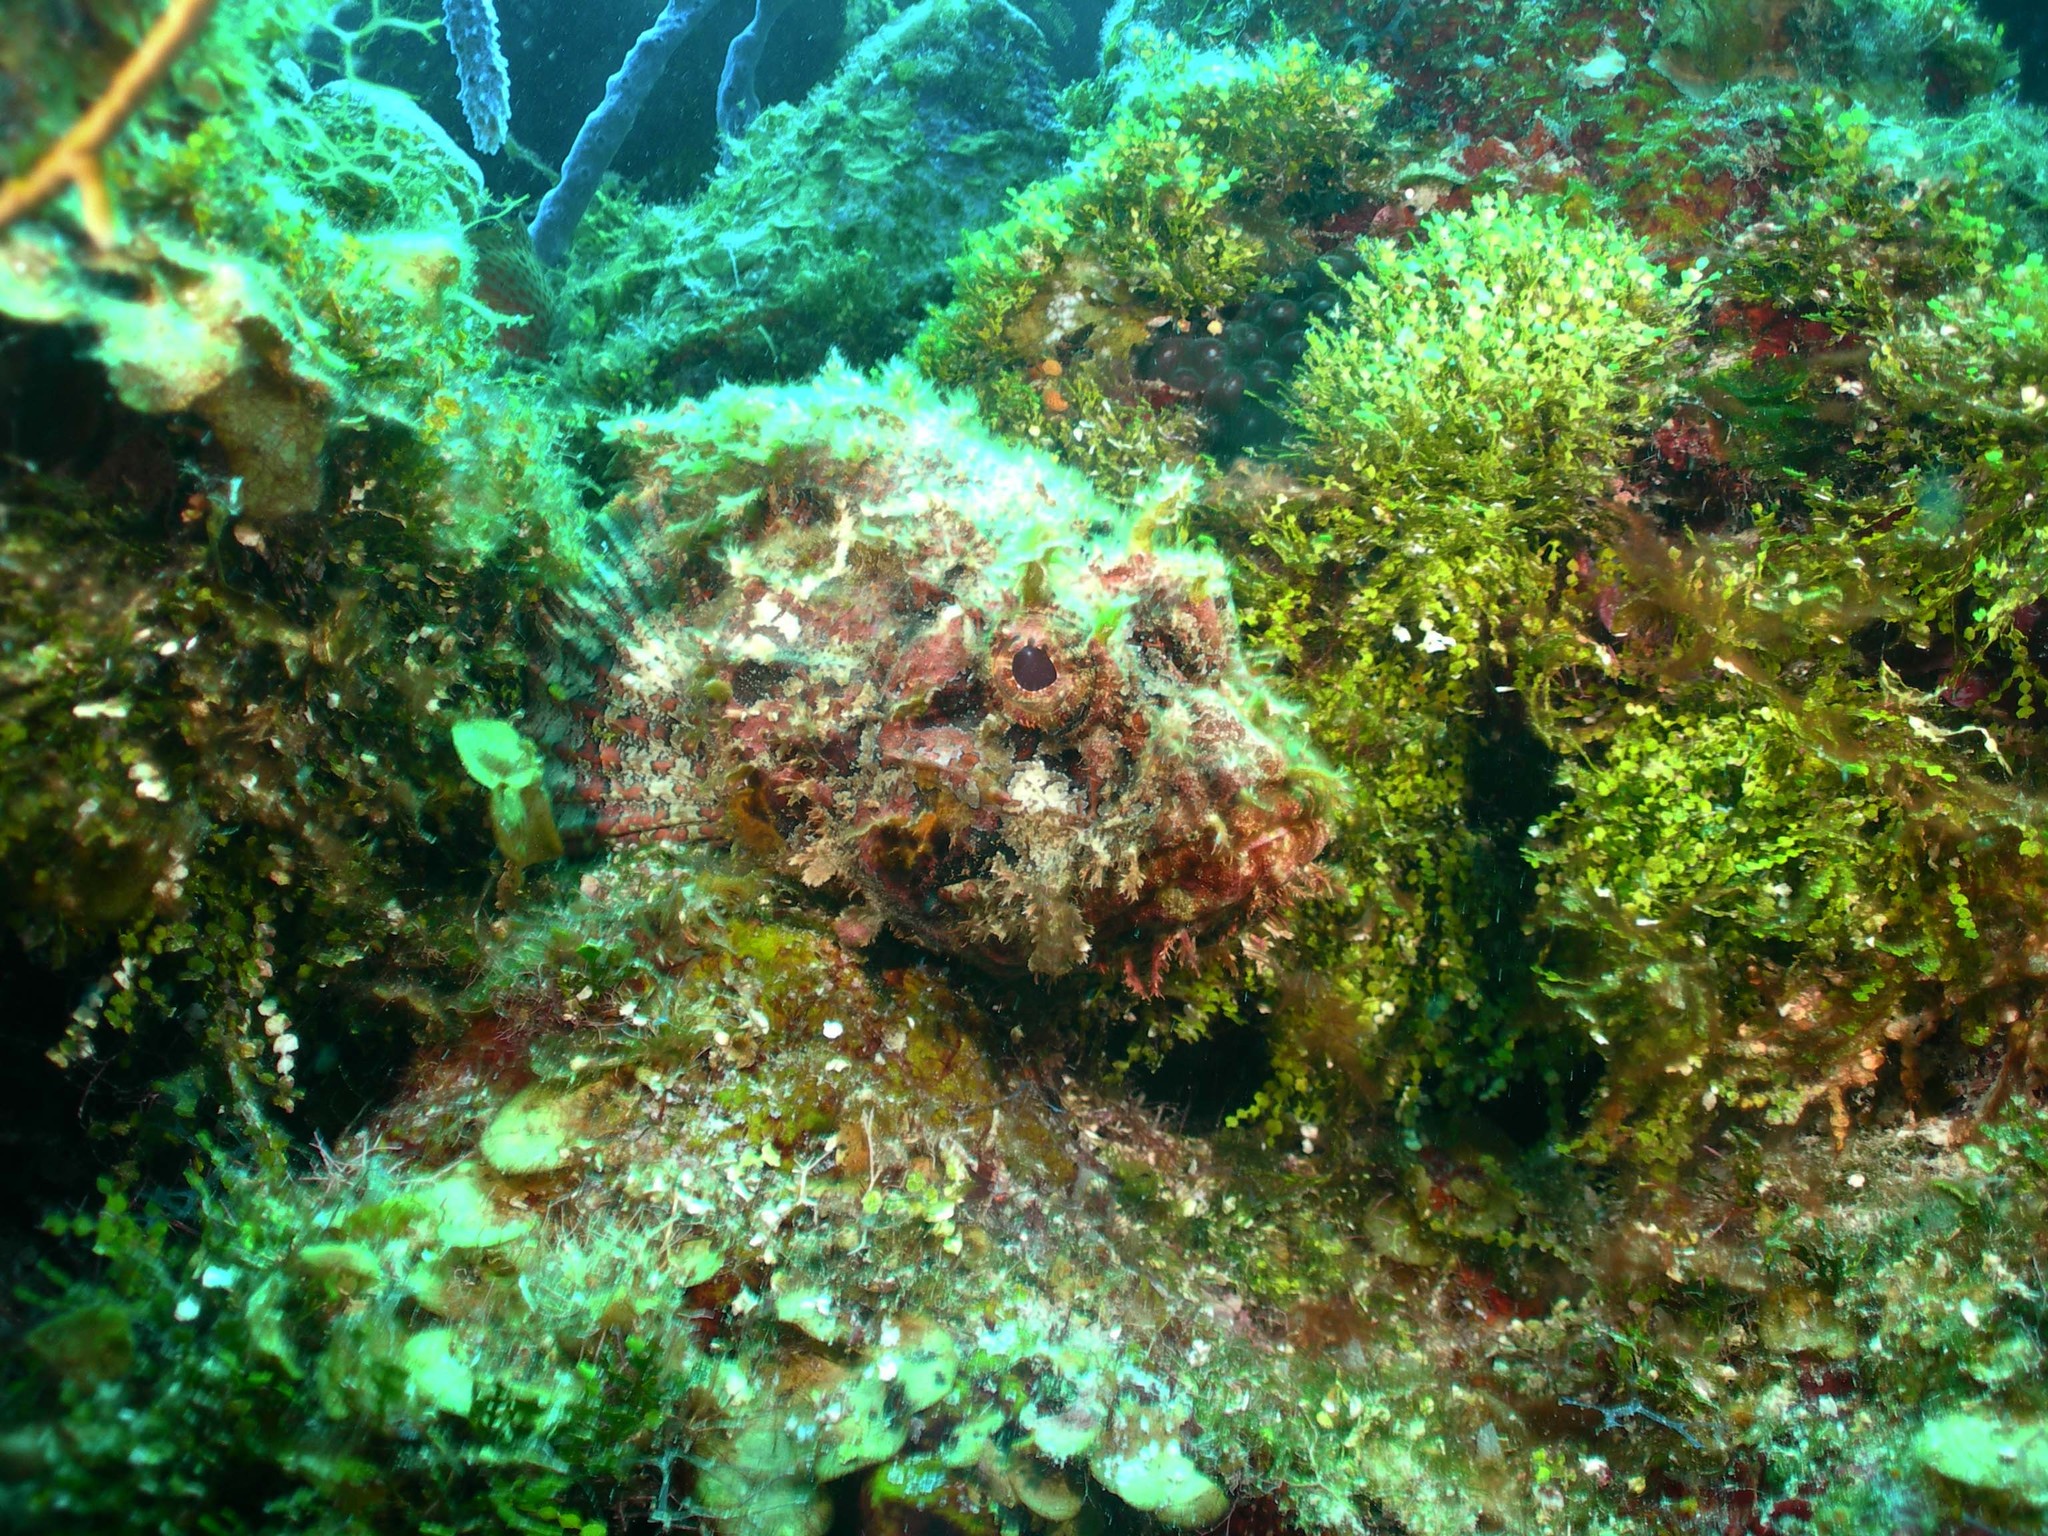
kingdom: Animalia
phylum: Chordata
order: Scorpaeniformes
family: Scorpaenidae
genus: Scorpaena
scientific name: Scorpaena plumieri
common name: Spotted scorpionfish
